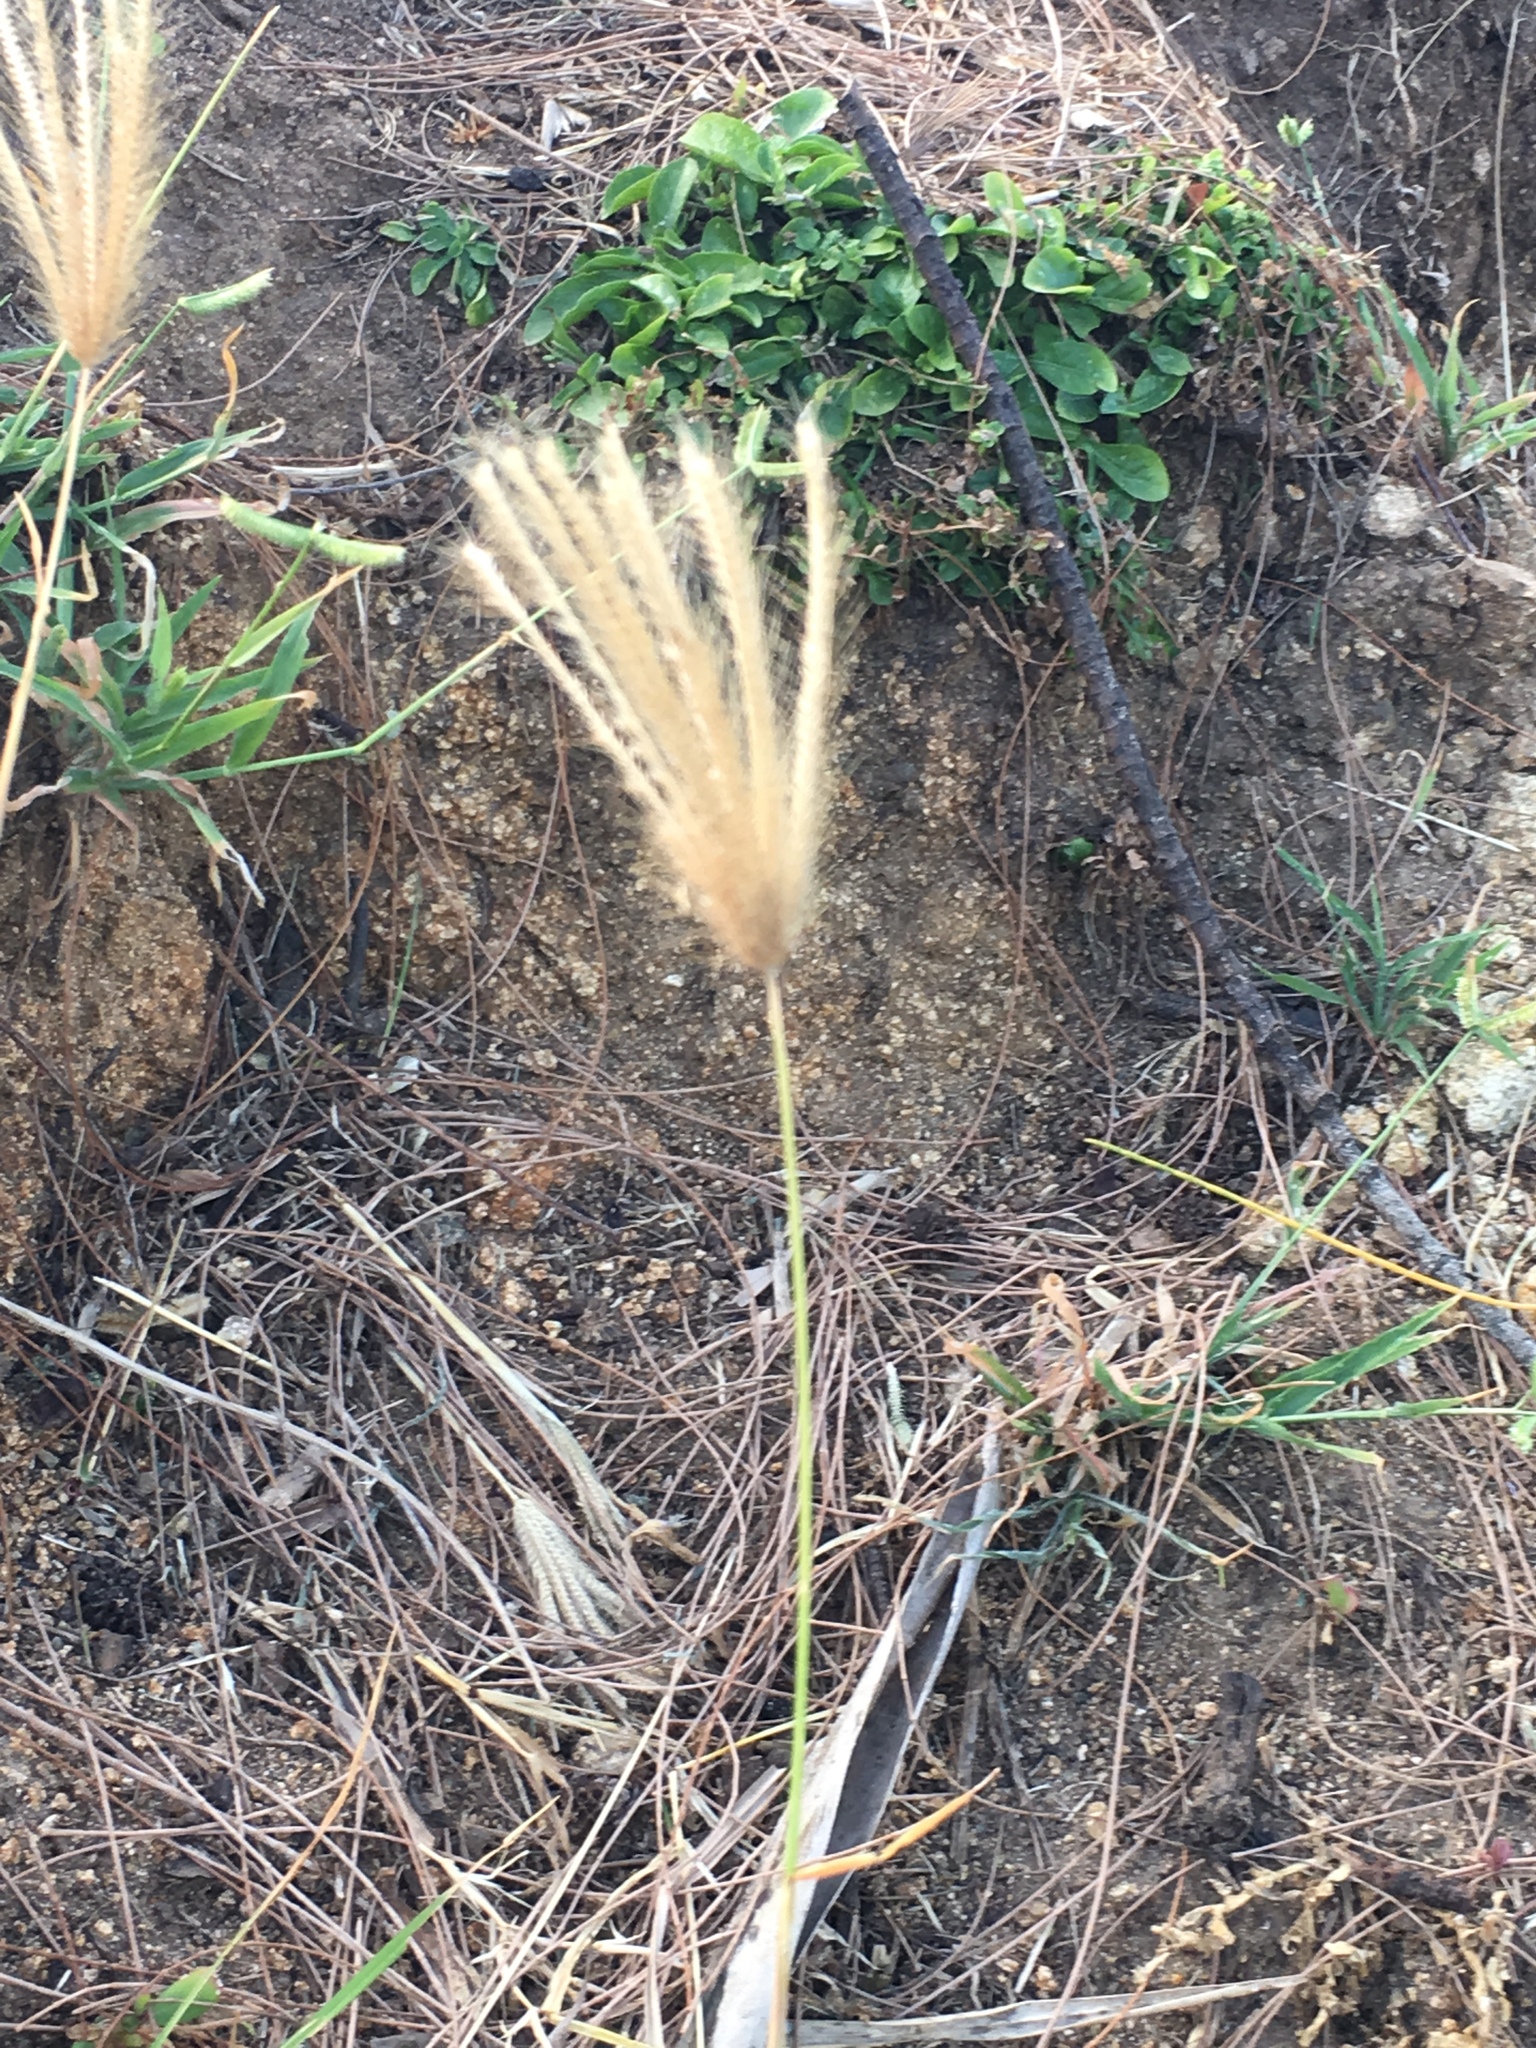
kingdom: Plantae
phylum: Tracheophyta
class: Liliopsida
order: Poales
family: Poaceae
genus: Chloris
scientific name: Chloris barbata
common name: Swollen fingergrass
